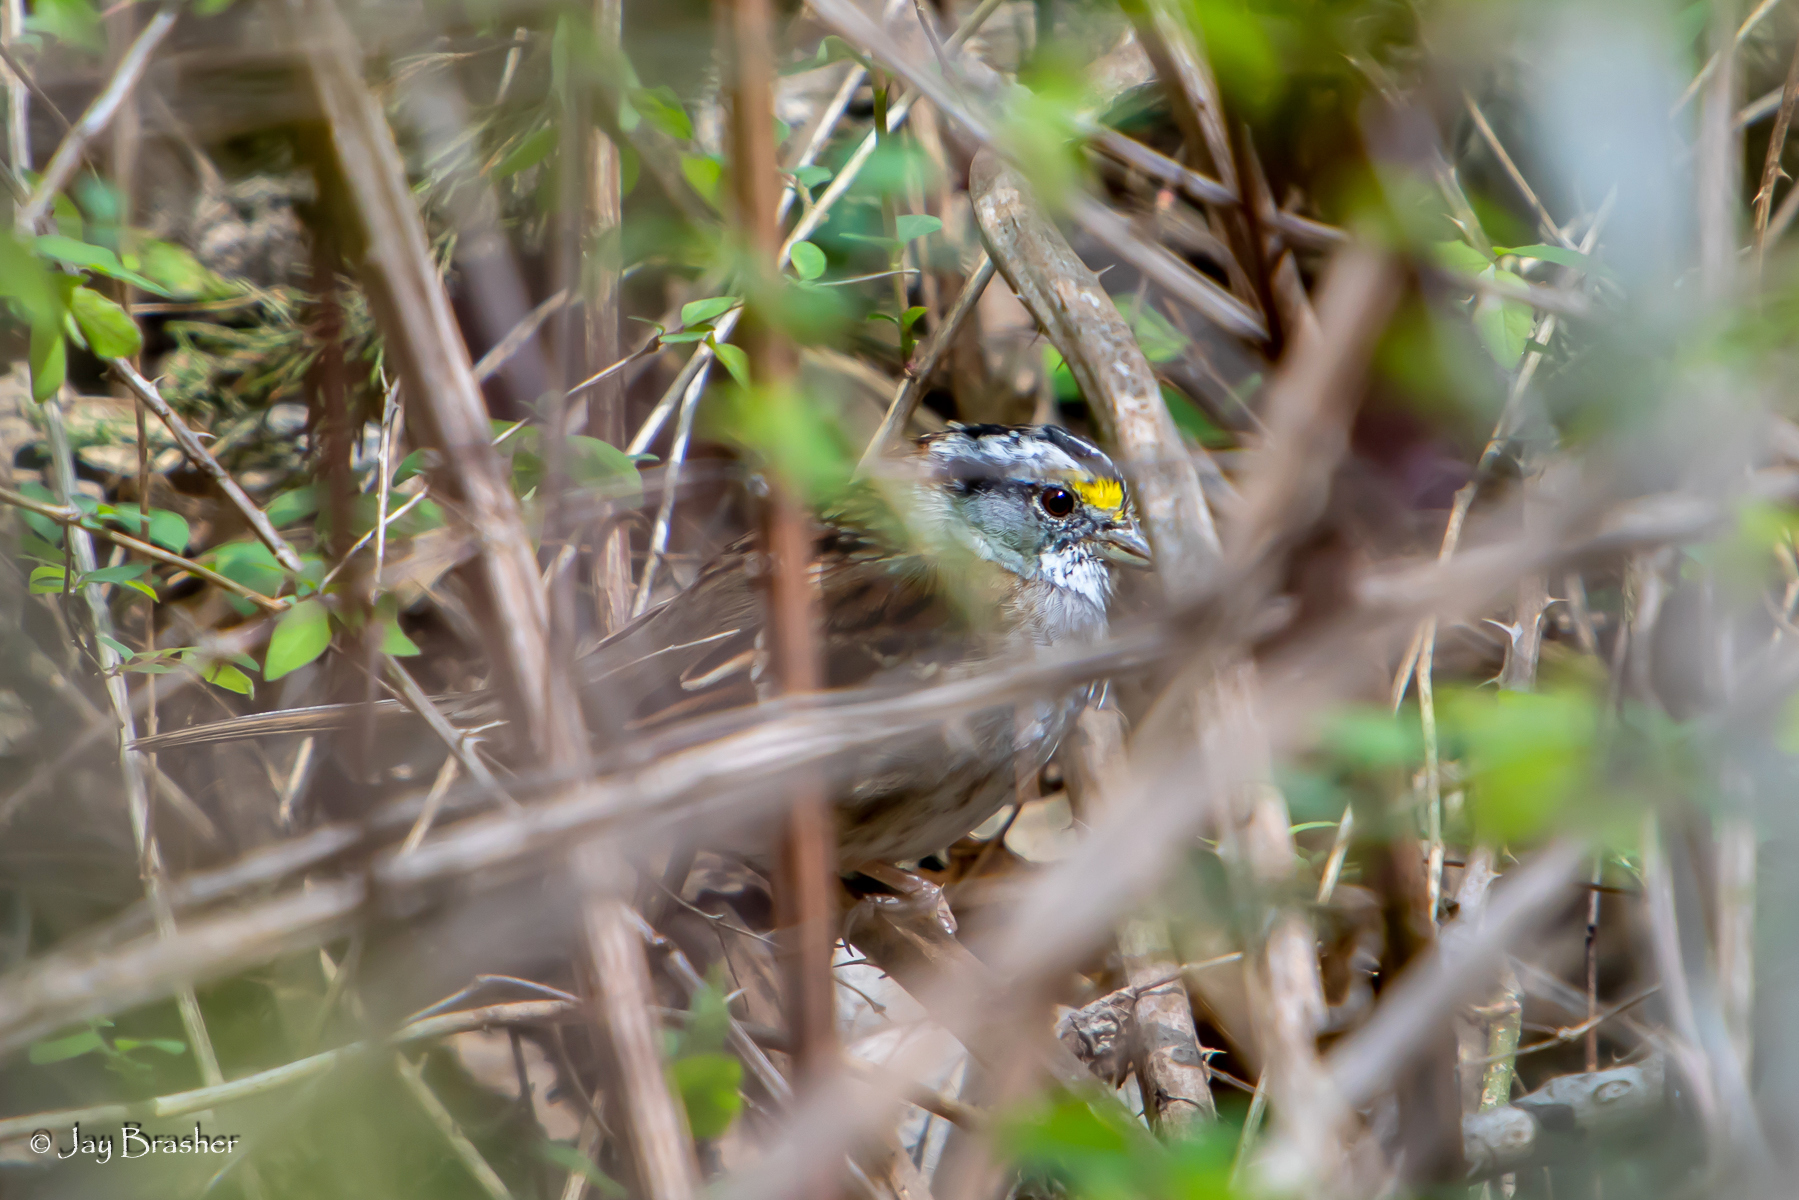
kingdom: Animalia
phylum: Chordata
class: Aves
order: Passeriformes
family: Passerellidae
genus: Zonotrichia
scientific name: Zonotrichia albicollis
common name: White-throated sparrow
